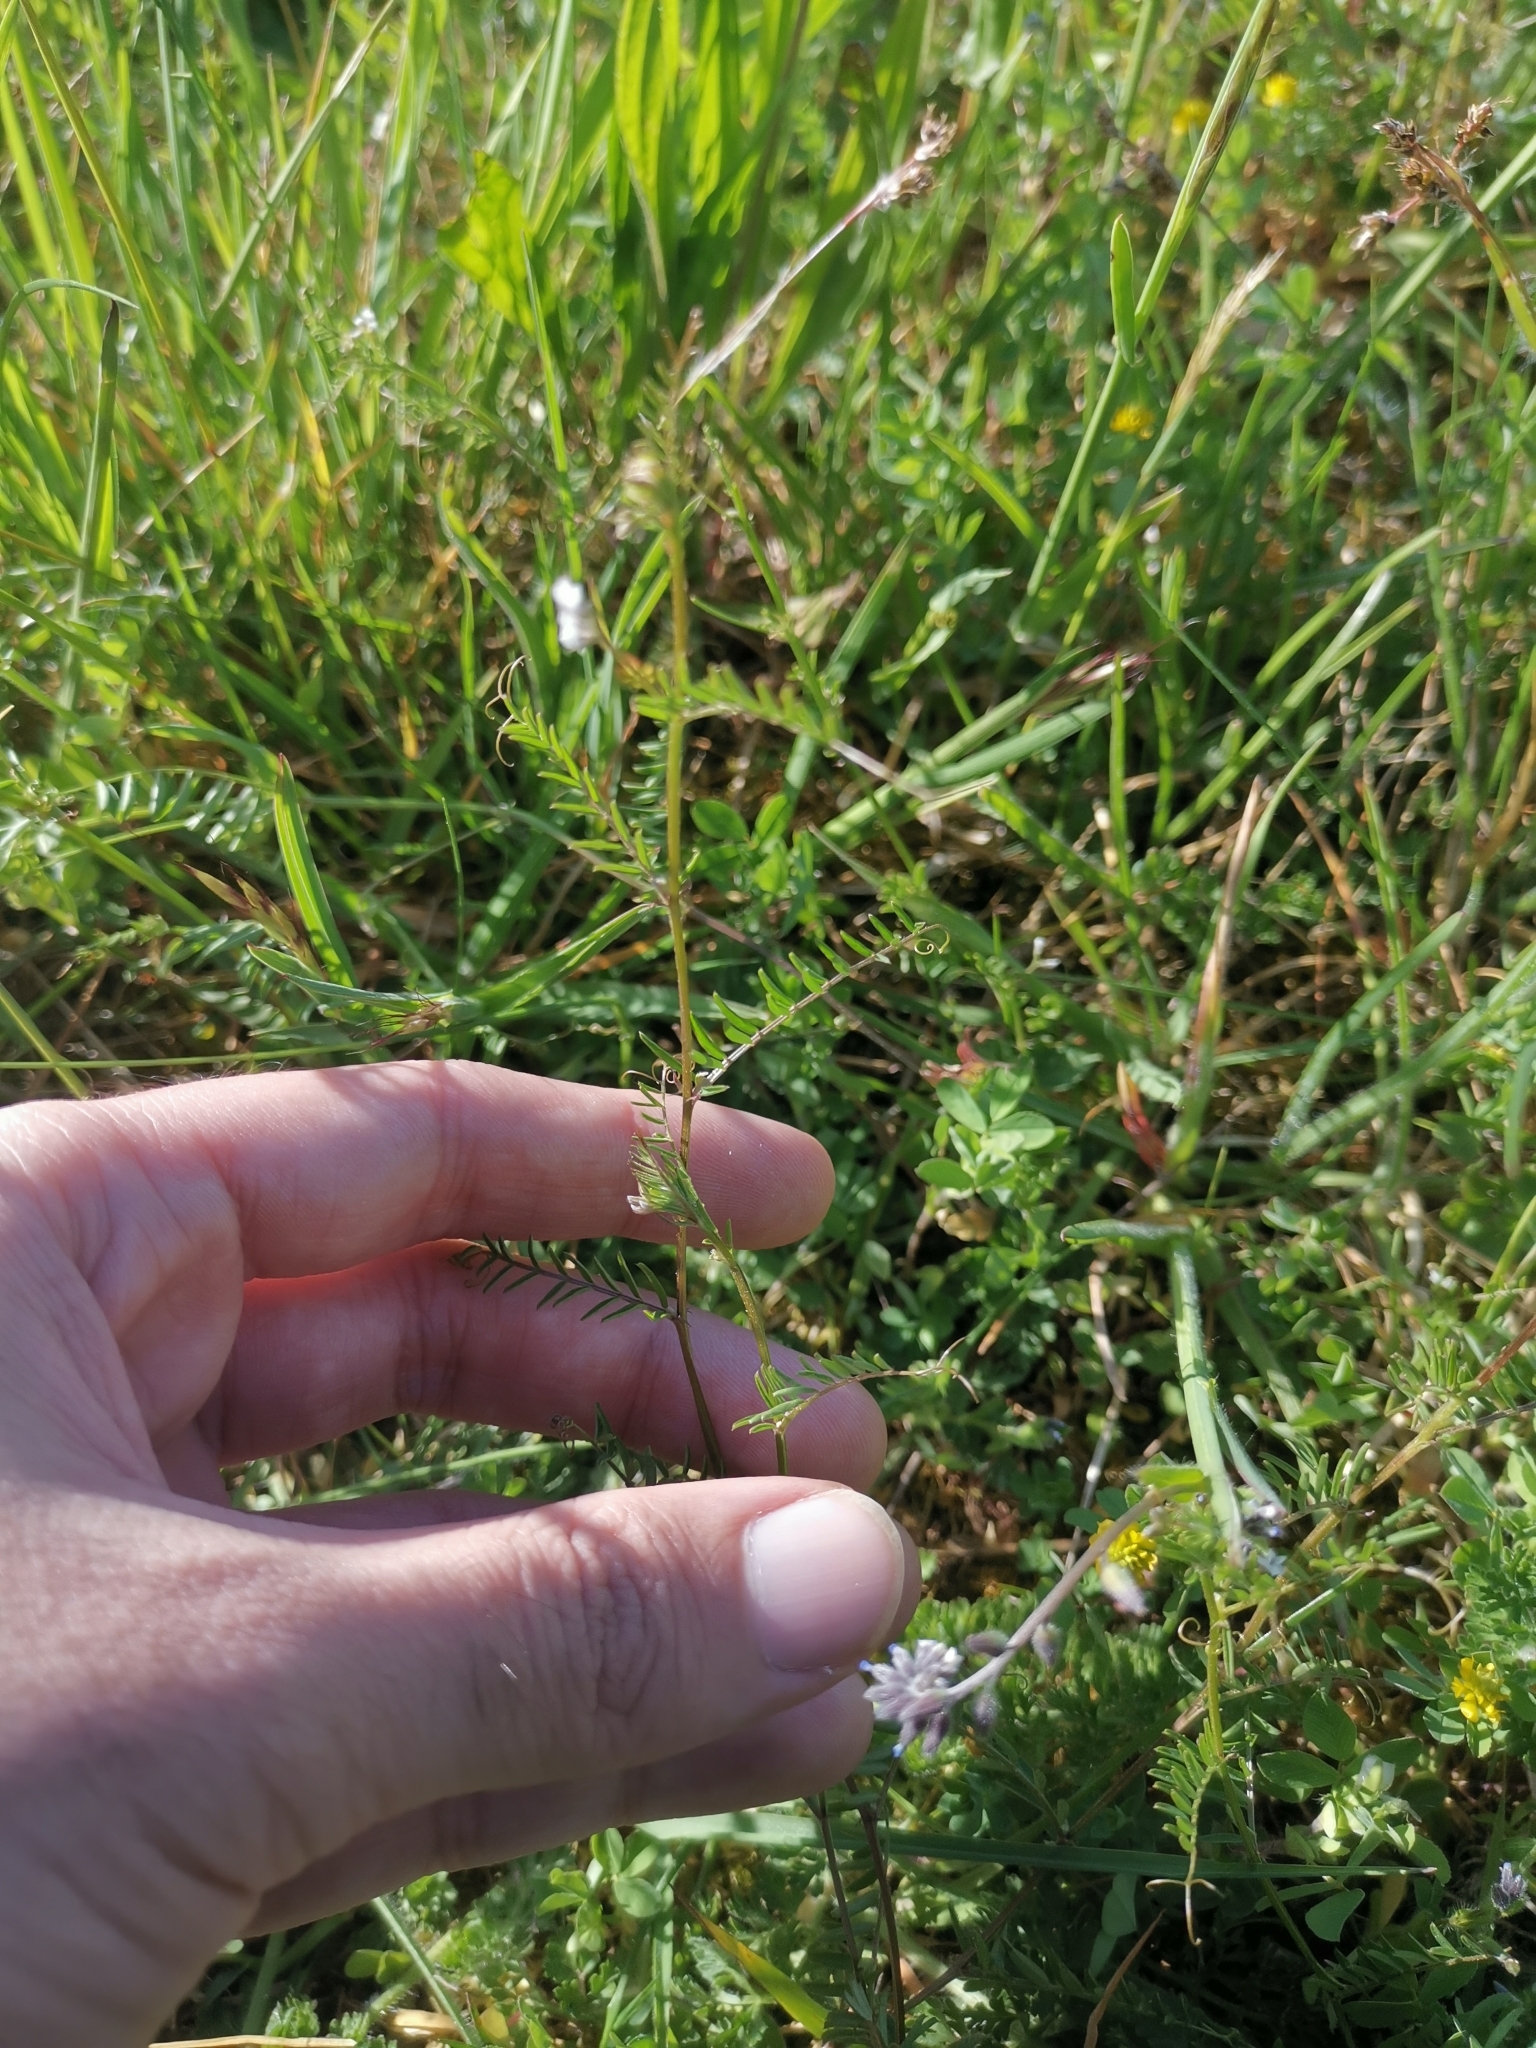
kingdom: Plantae
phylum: Tracheophyta
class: Magnoliopsida
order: Fabales
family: Fabaceae
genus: Vicia
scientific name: Vicia hirsuta
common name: Tiny vetch
